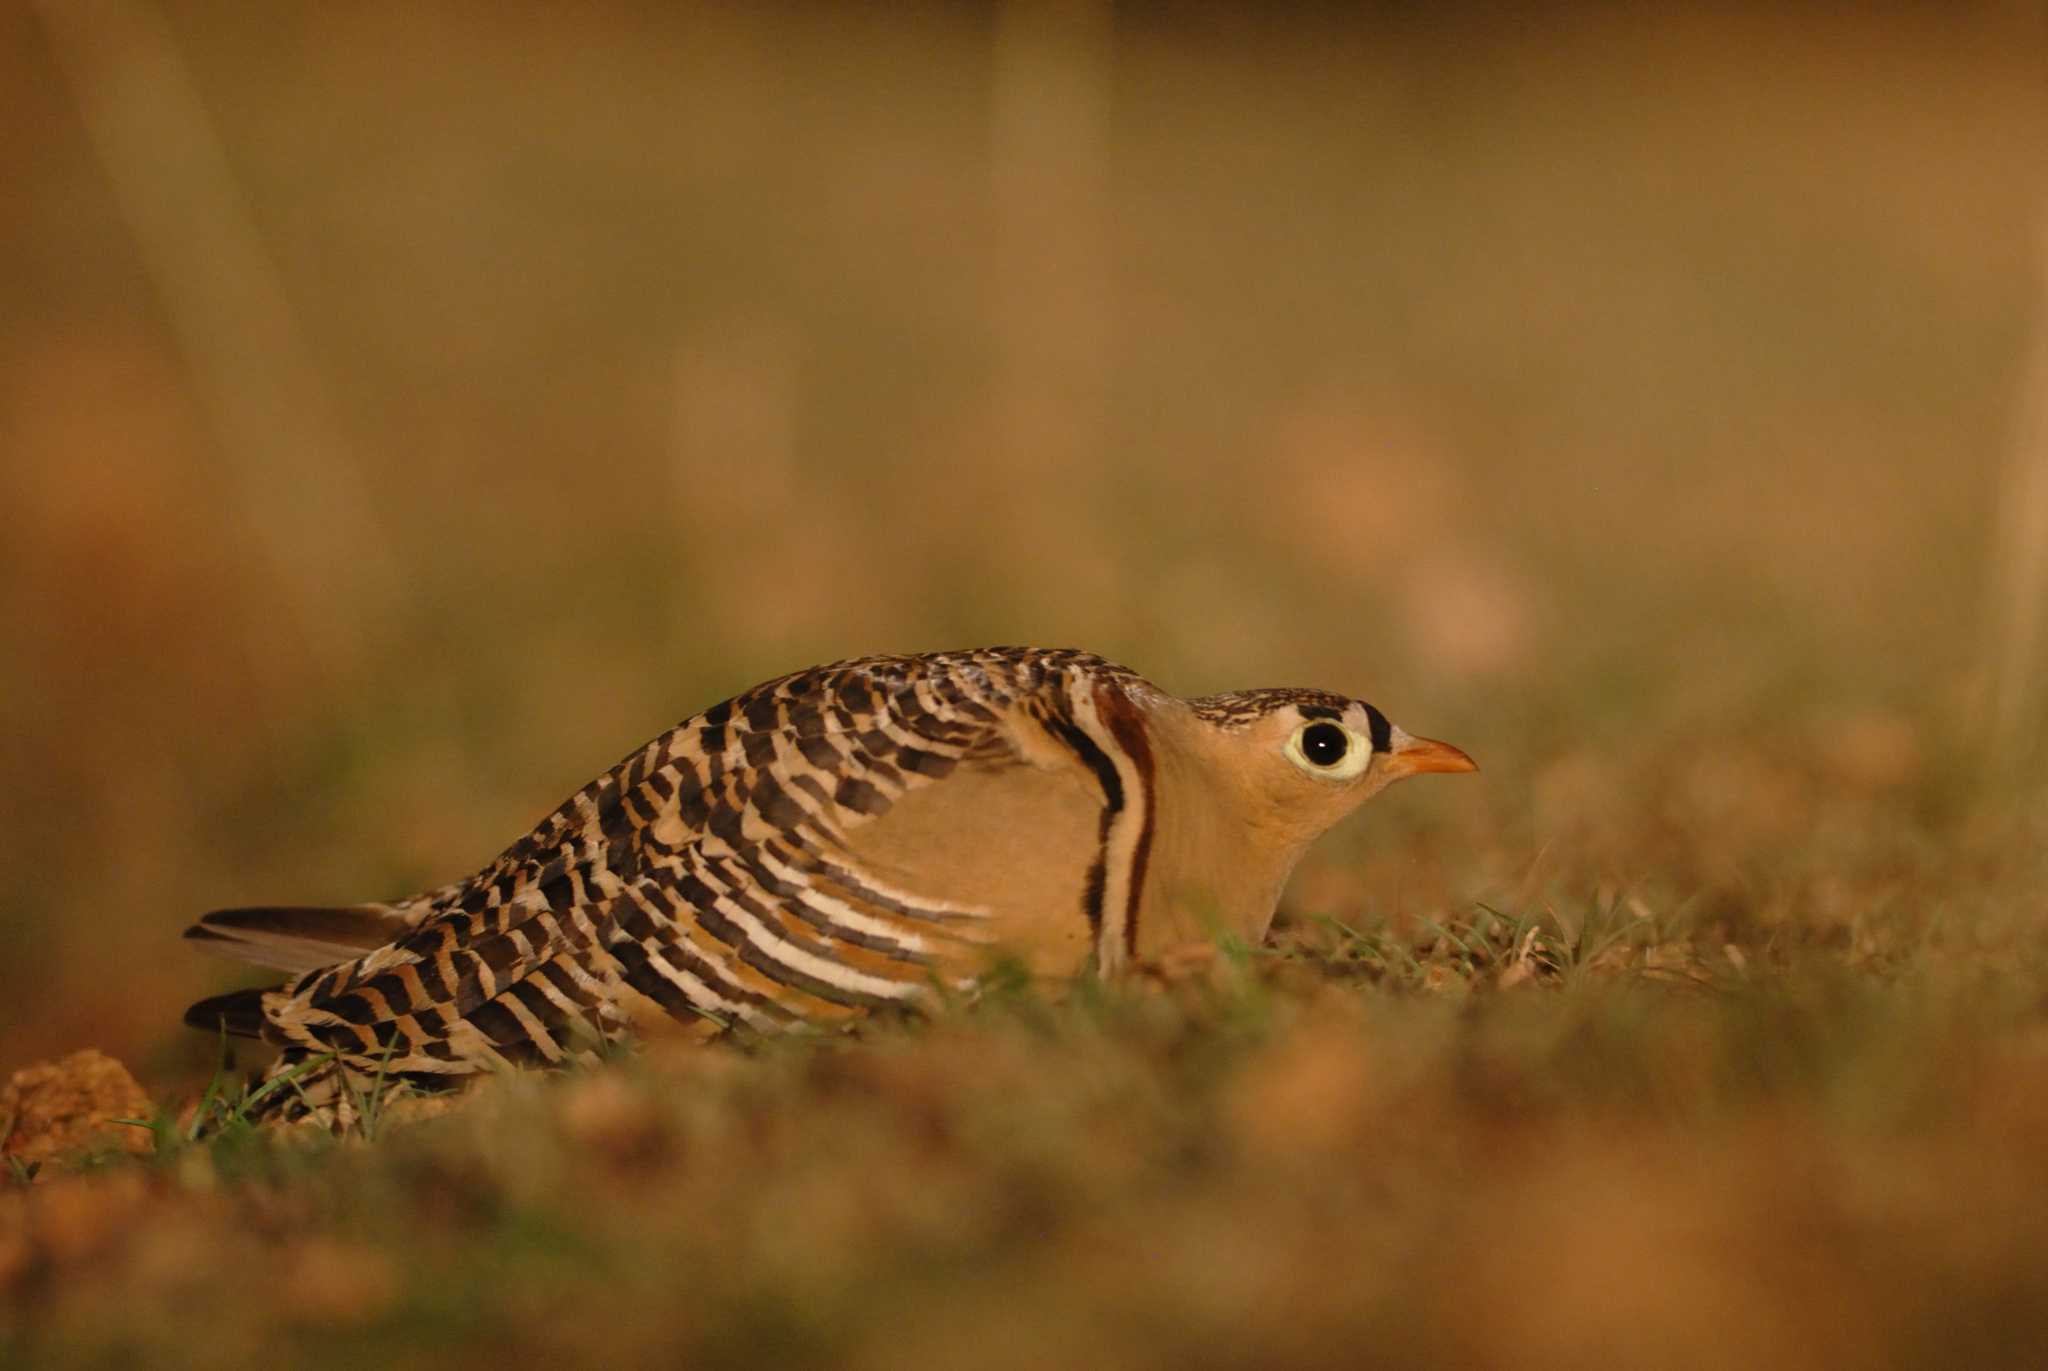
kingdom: Animalia
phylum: Chordata
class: Aves
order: Pteroclidiformes
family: Pteroclididae
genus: Pterocles
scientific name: Pterocles indicus
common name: Painted sandgrouse
